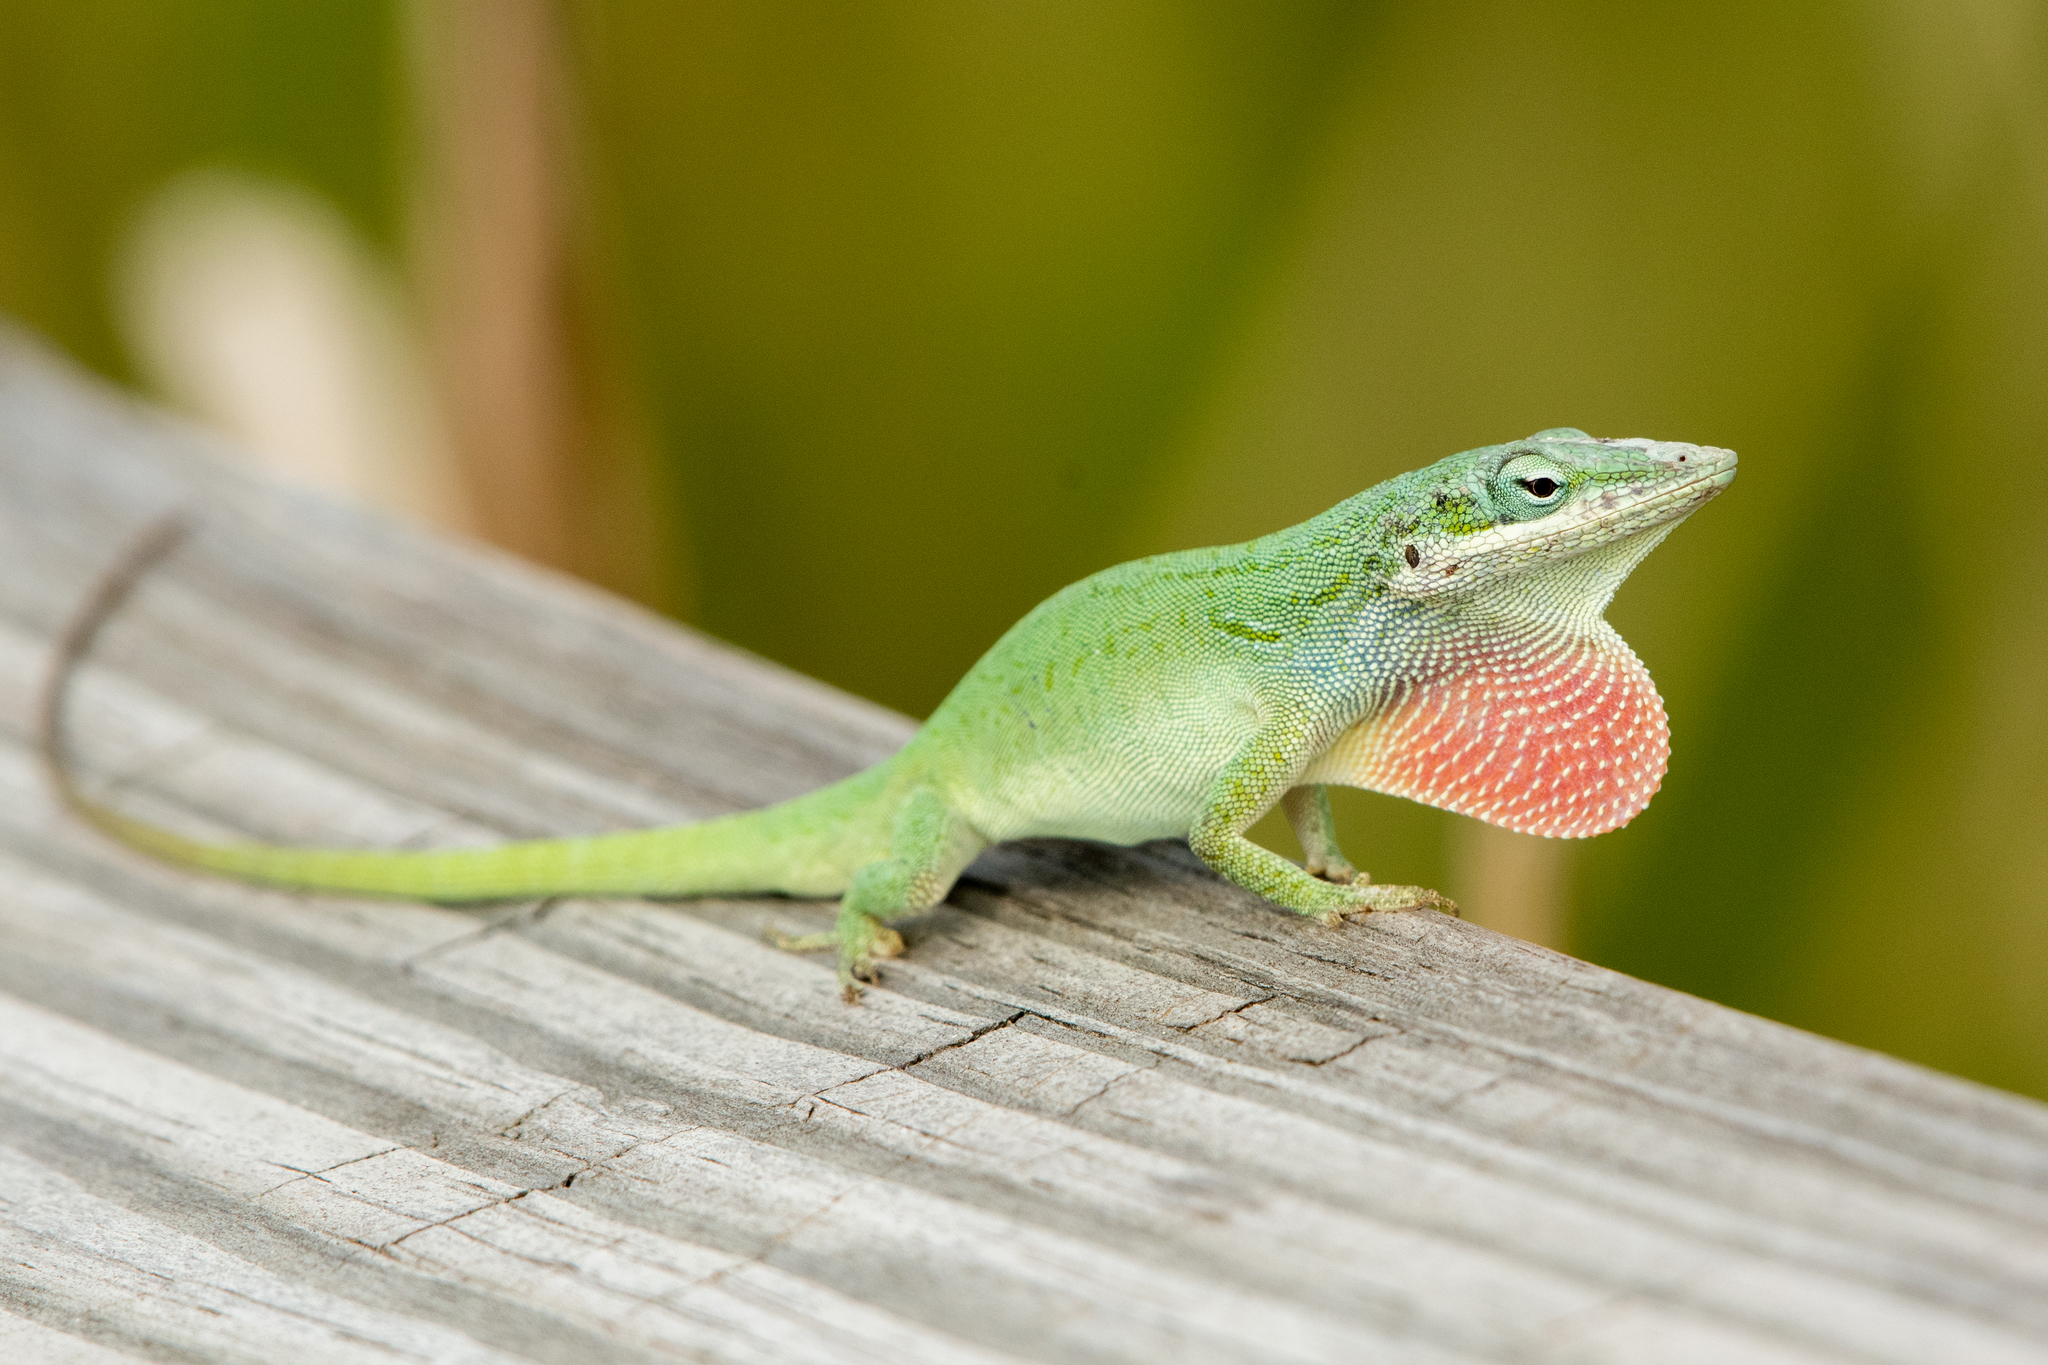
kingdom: Animalia
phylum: Chordata
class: Squamata
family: Dactyloidae
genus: Anolis
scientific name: Anolis carolinensis
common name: Green anole
